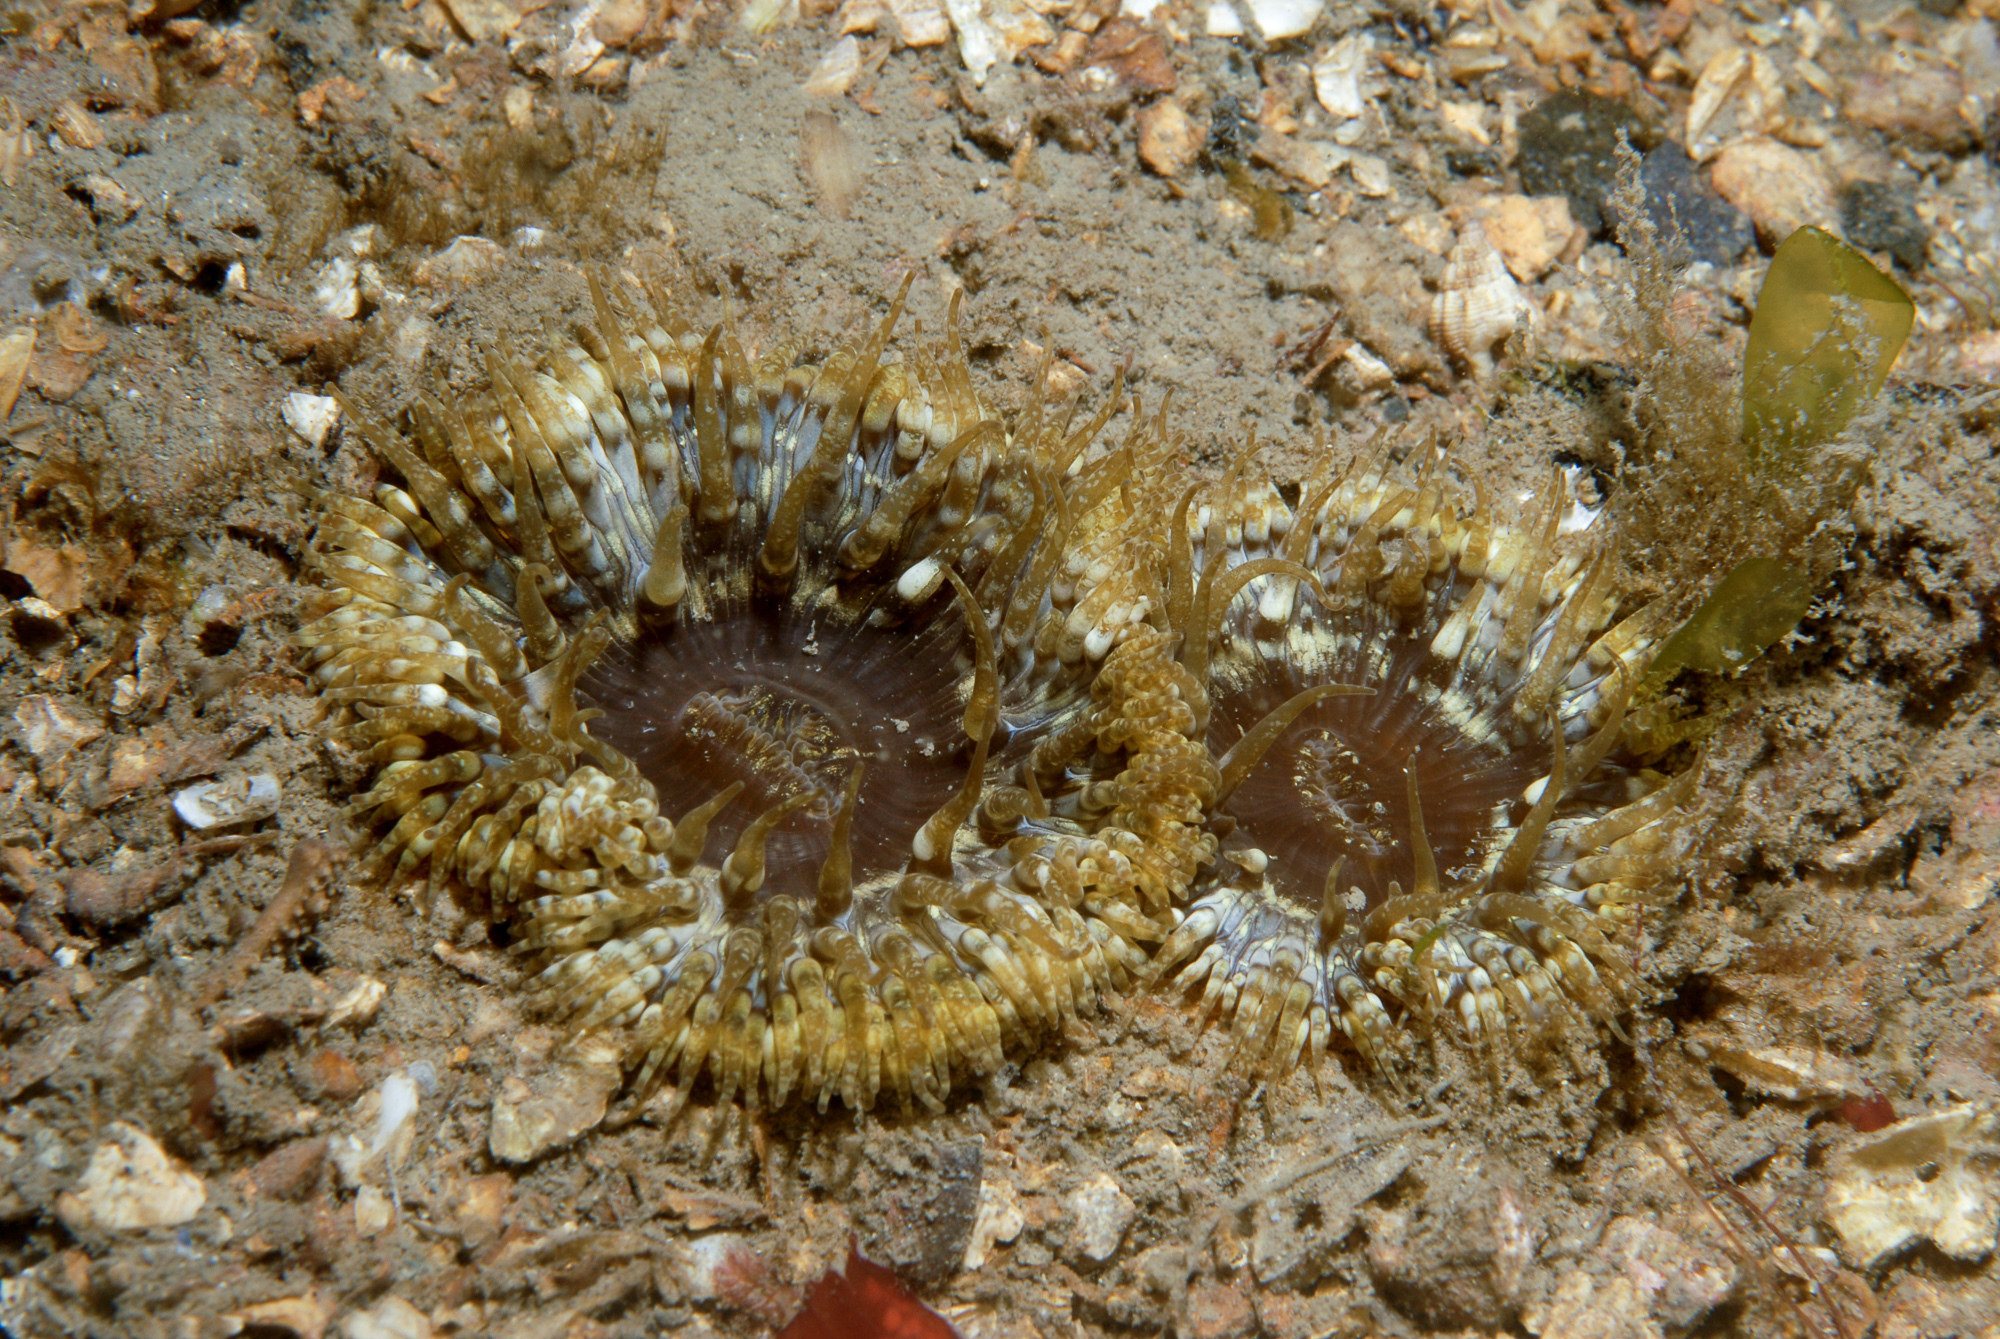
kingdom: Animalia
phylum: Cnidaria
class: Anthozoa
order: Actiniaria
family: Sagartiidae
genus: Cereus
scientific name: Cereus pedunculatus
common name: Daisy anemone
